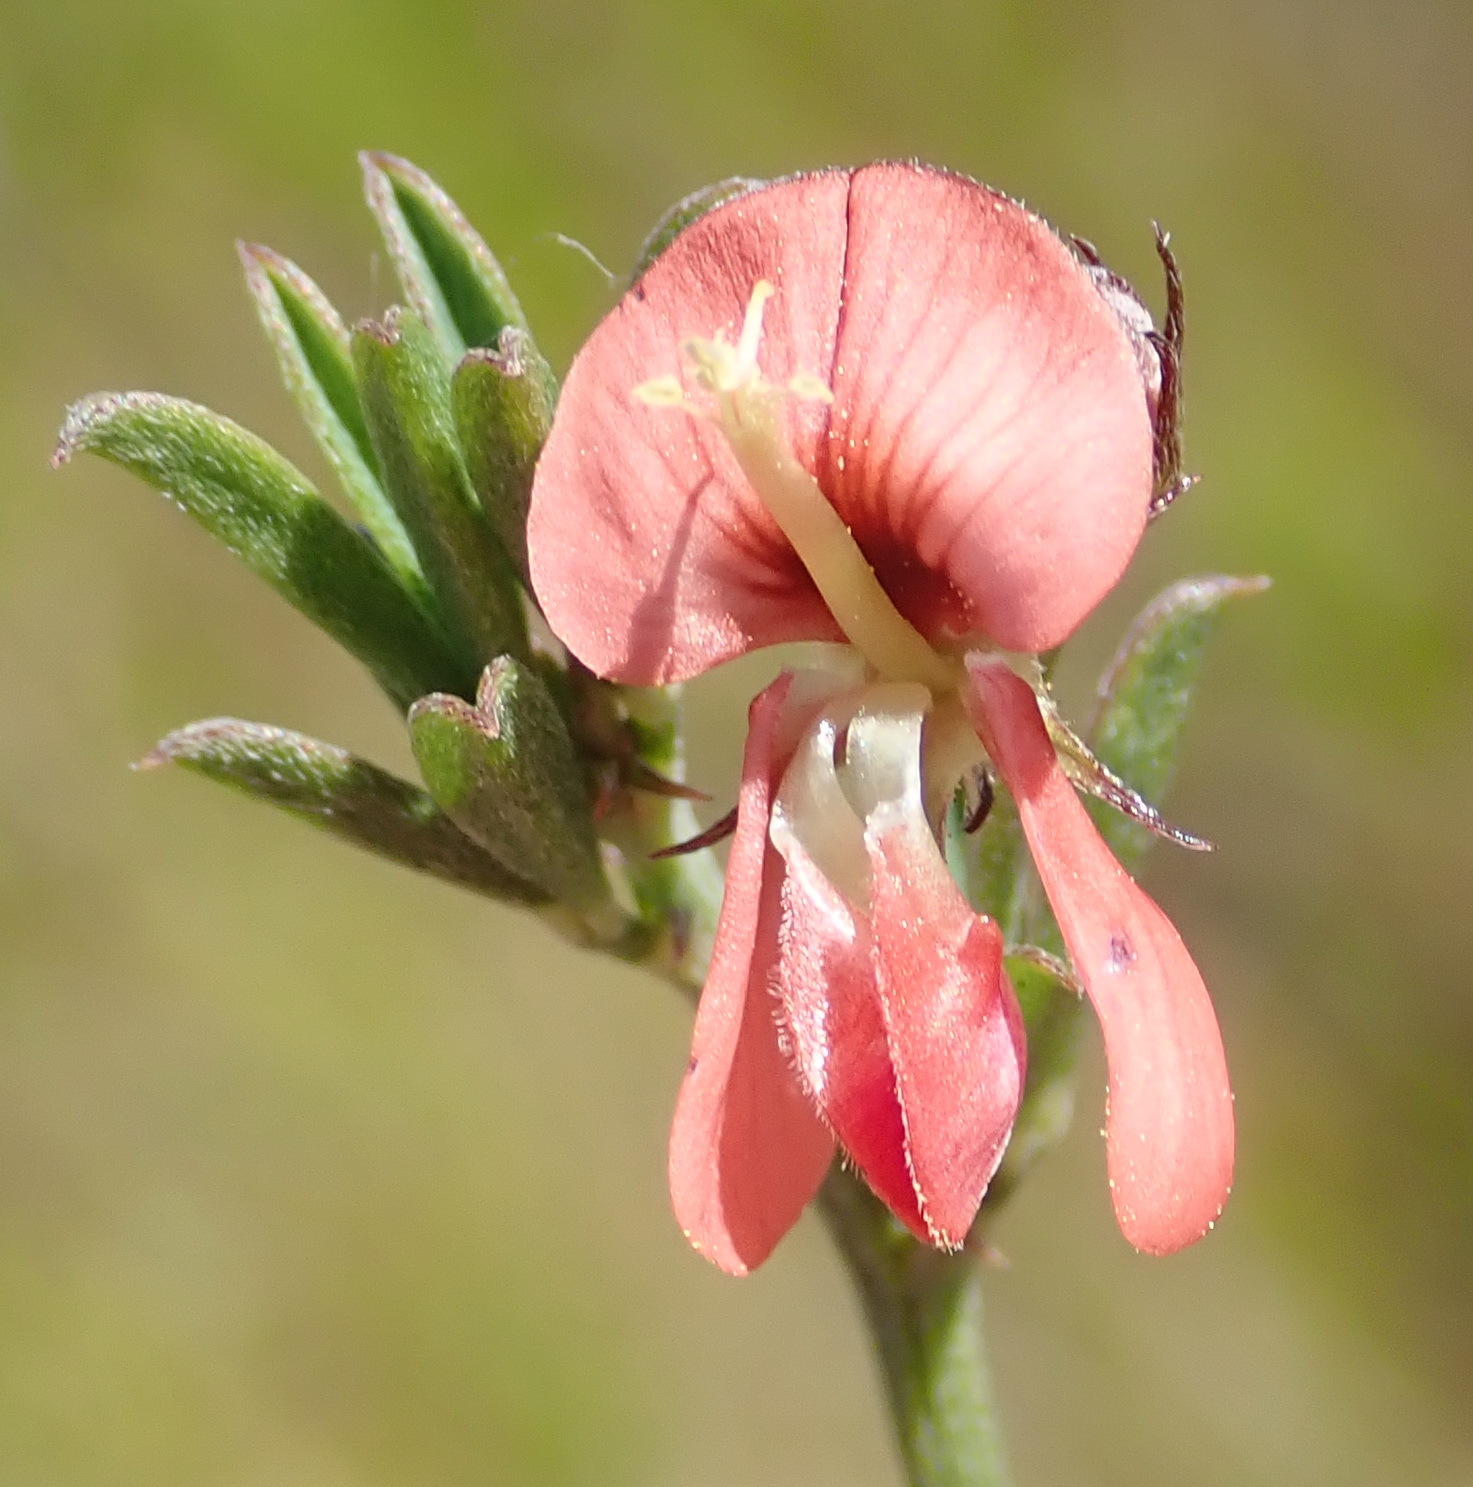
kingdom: Plantae
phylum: Tracheophyta
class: Magnoliopsida
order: Fabales
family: Fabaceae
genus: Indigofera
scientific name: Indigofera priorii
